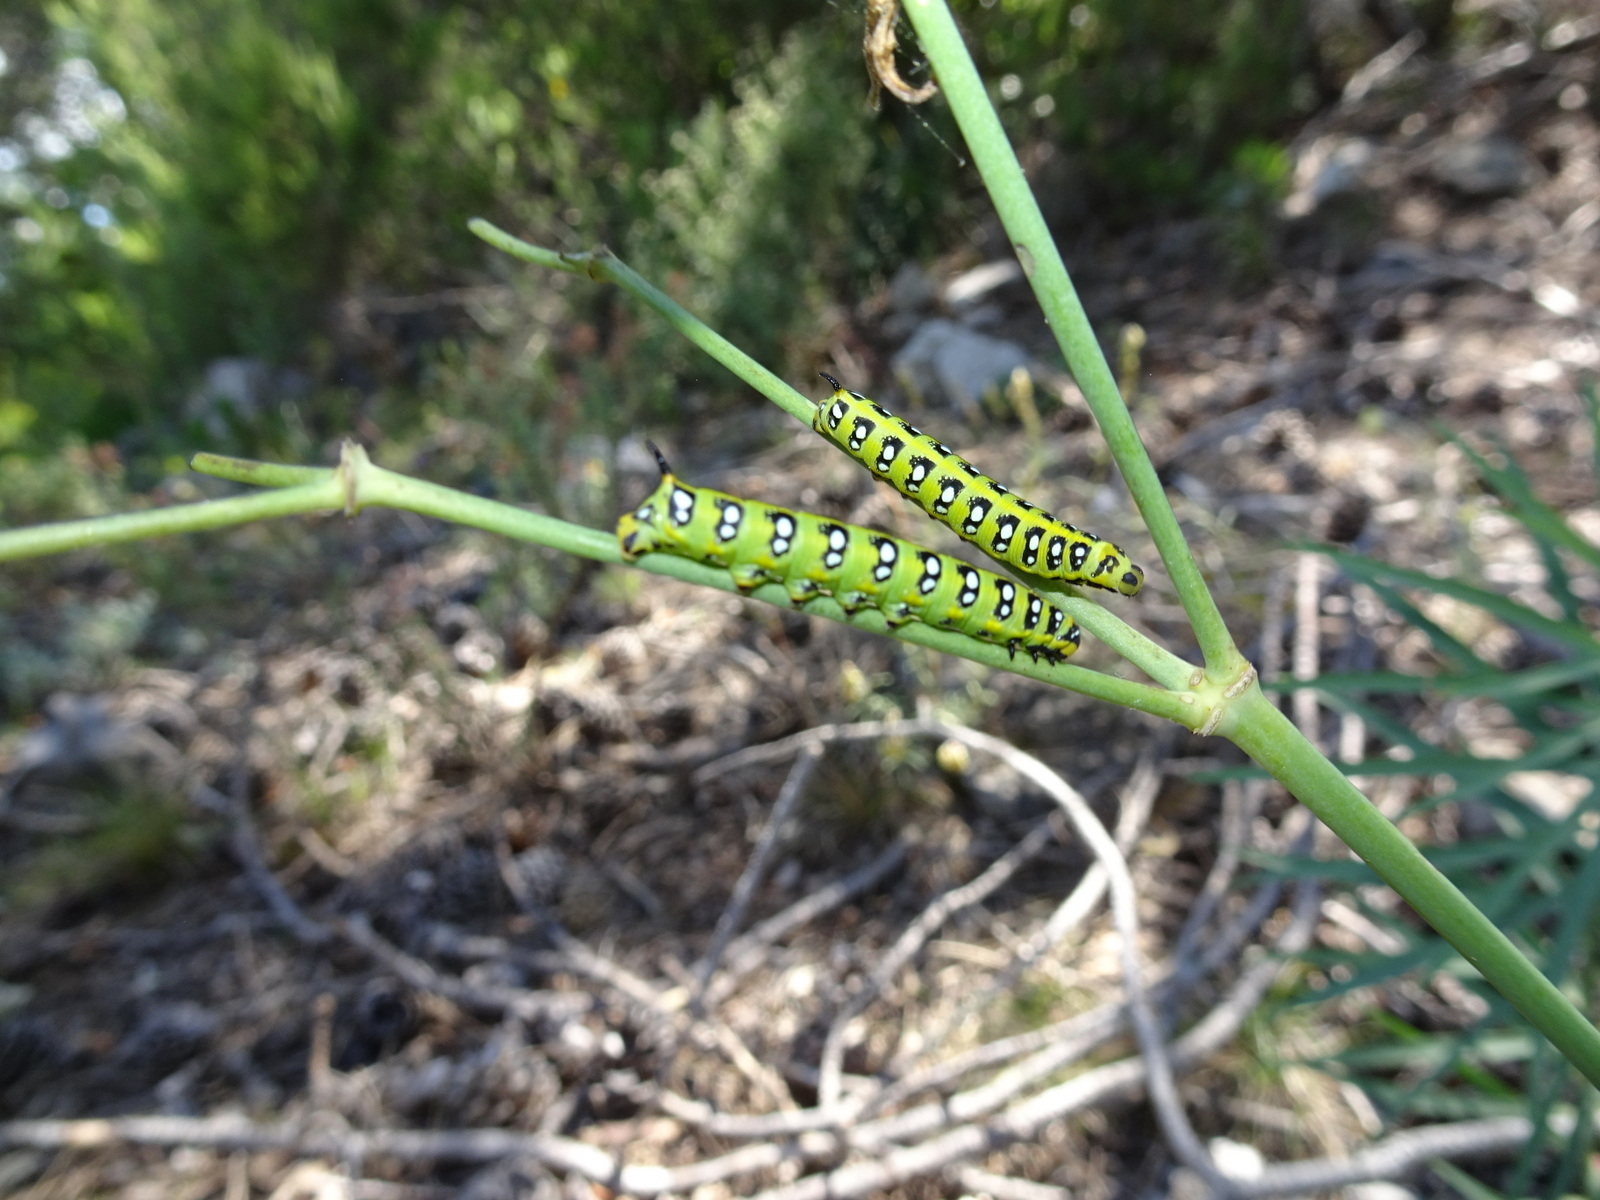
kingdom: Animalia
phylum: Arthropoda
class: Insecta
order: Lepidoptera
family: Sphingidae
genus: Hyles
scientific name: Hyles euphorbiae
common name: Spurge hawk-moth
